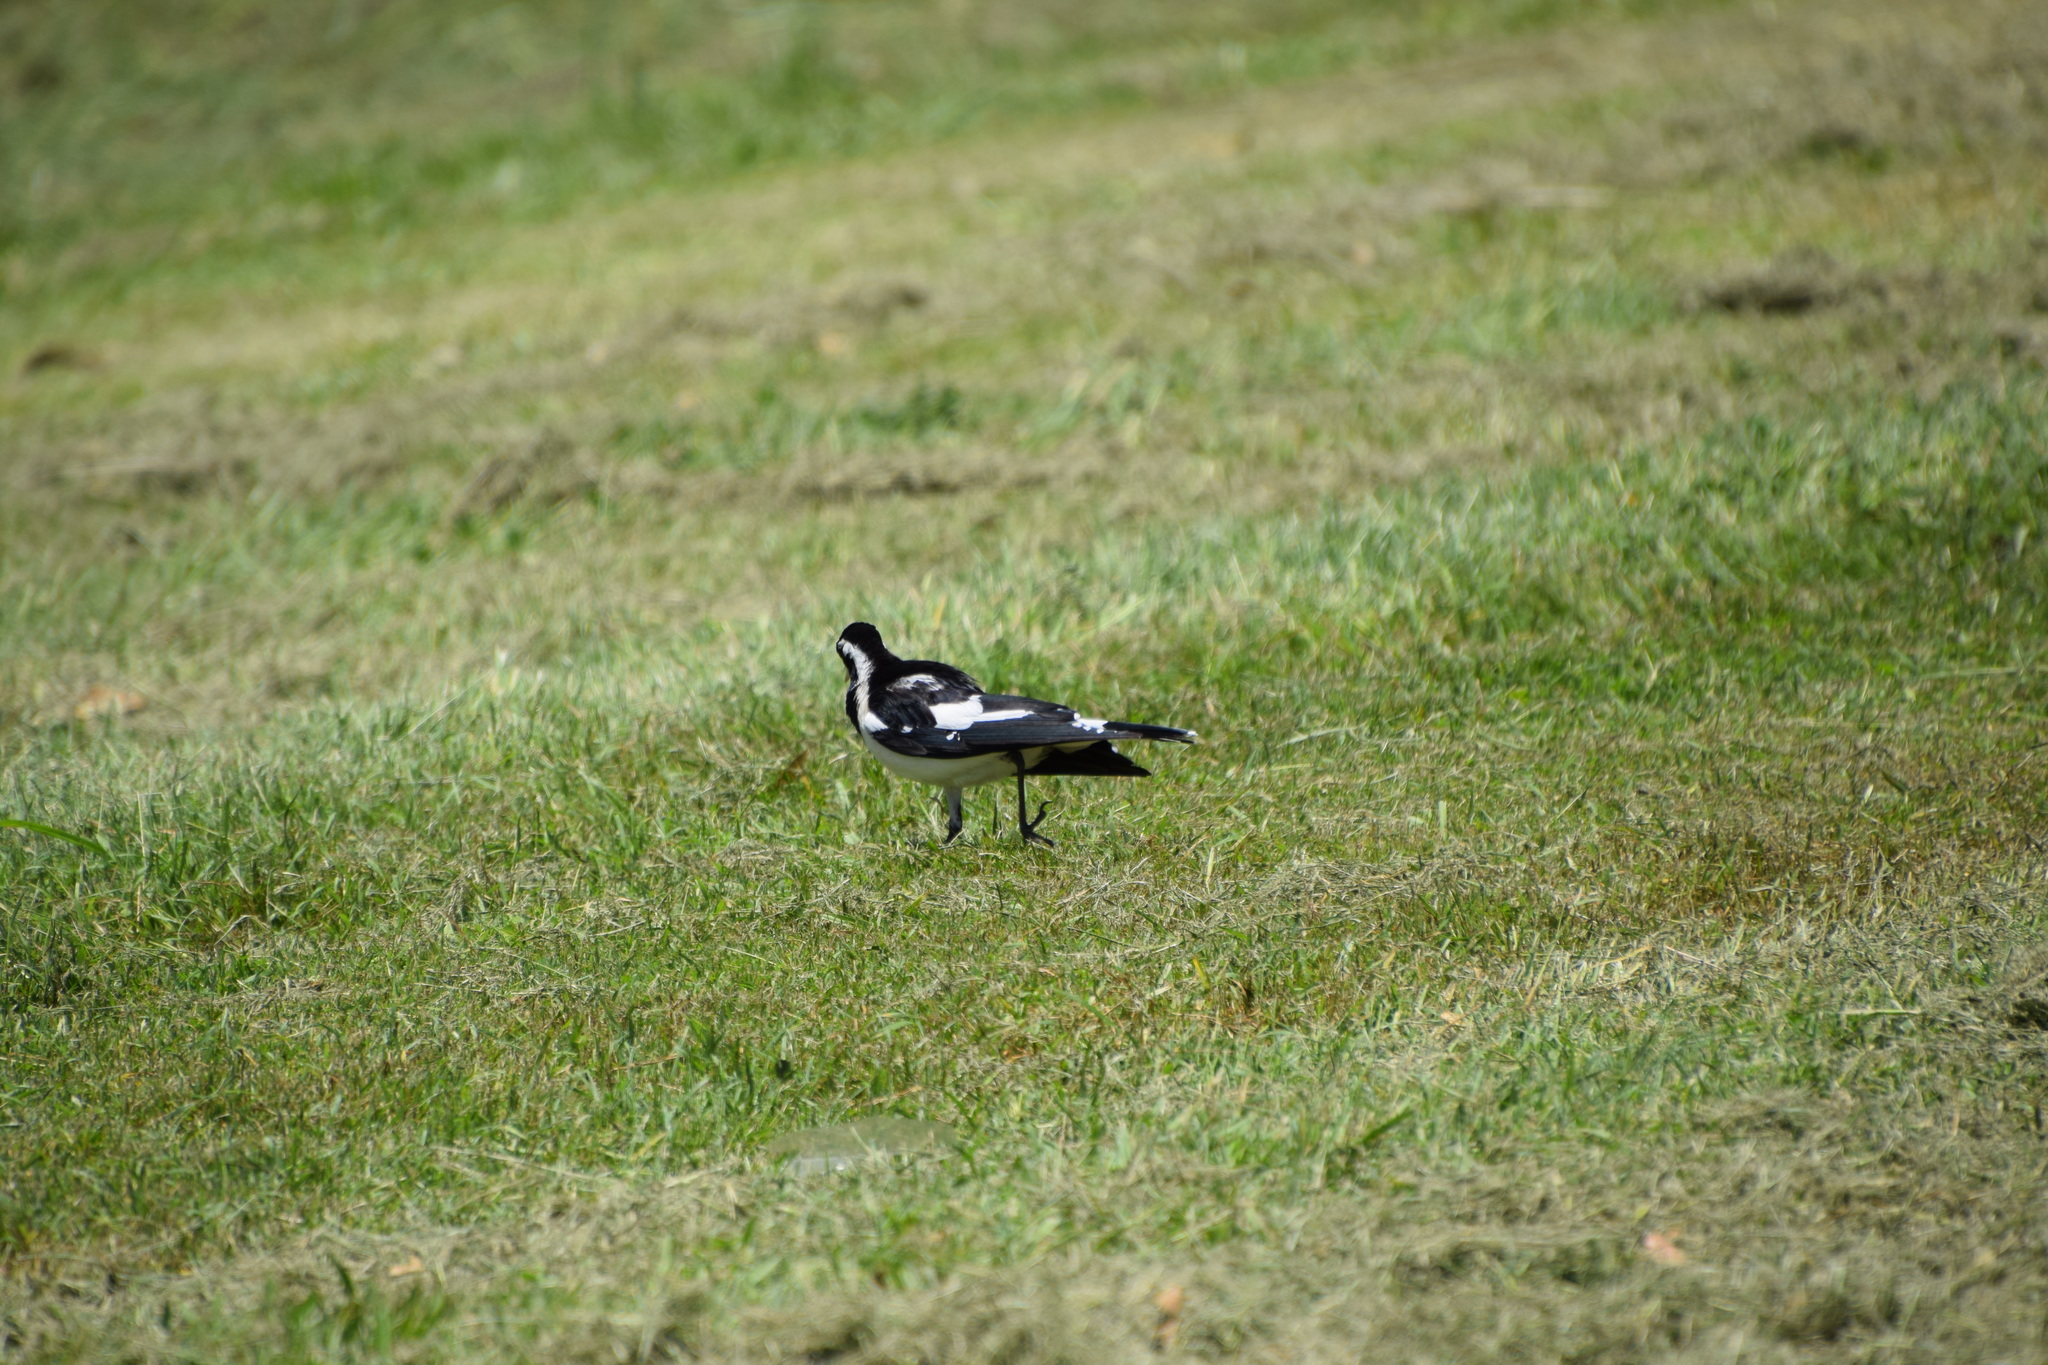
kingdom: Animalia
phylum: Chordata
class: Aves
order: Passeriformes
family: Monarchidae
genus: Grallina
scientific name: Grallina cyanoleuca
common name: Magpie-lark
